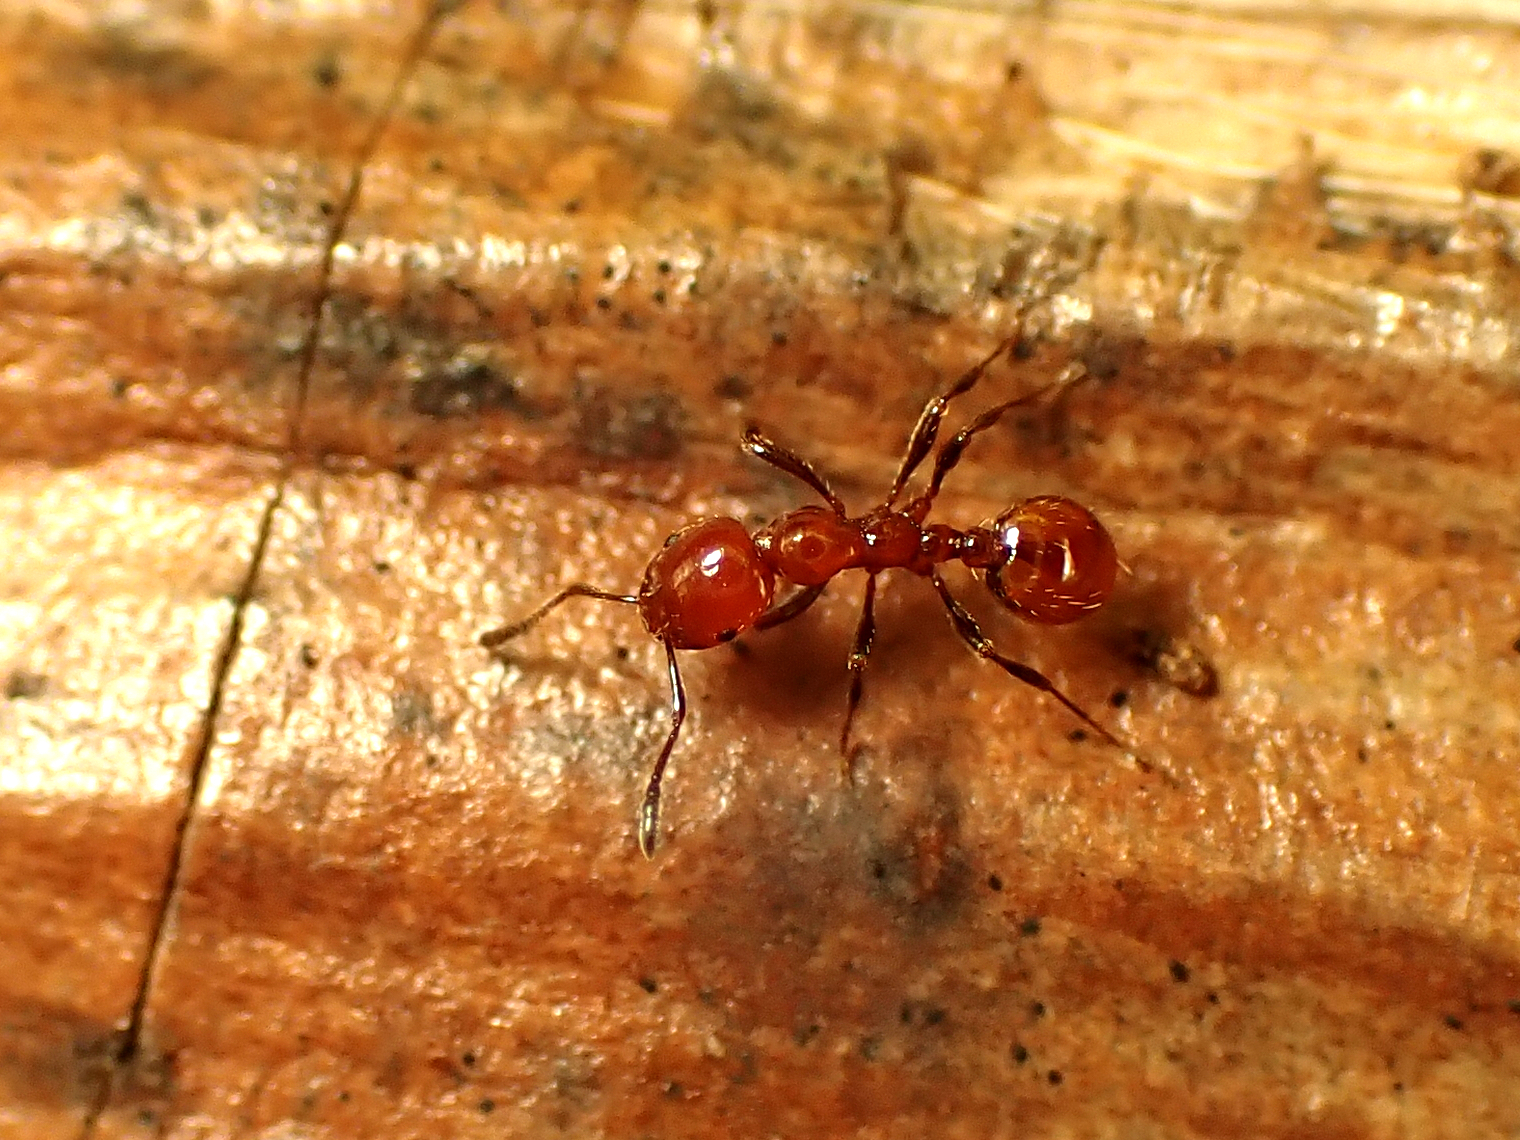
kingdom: Animalia
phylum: Arthropoda
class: Insecta
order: Hymenoptera
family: Formicidae
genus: Monomorium
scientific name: Monomorium antarcticum
